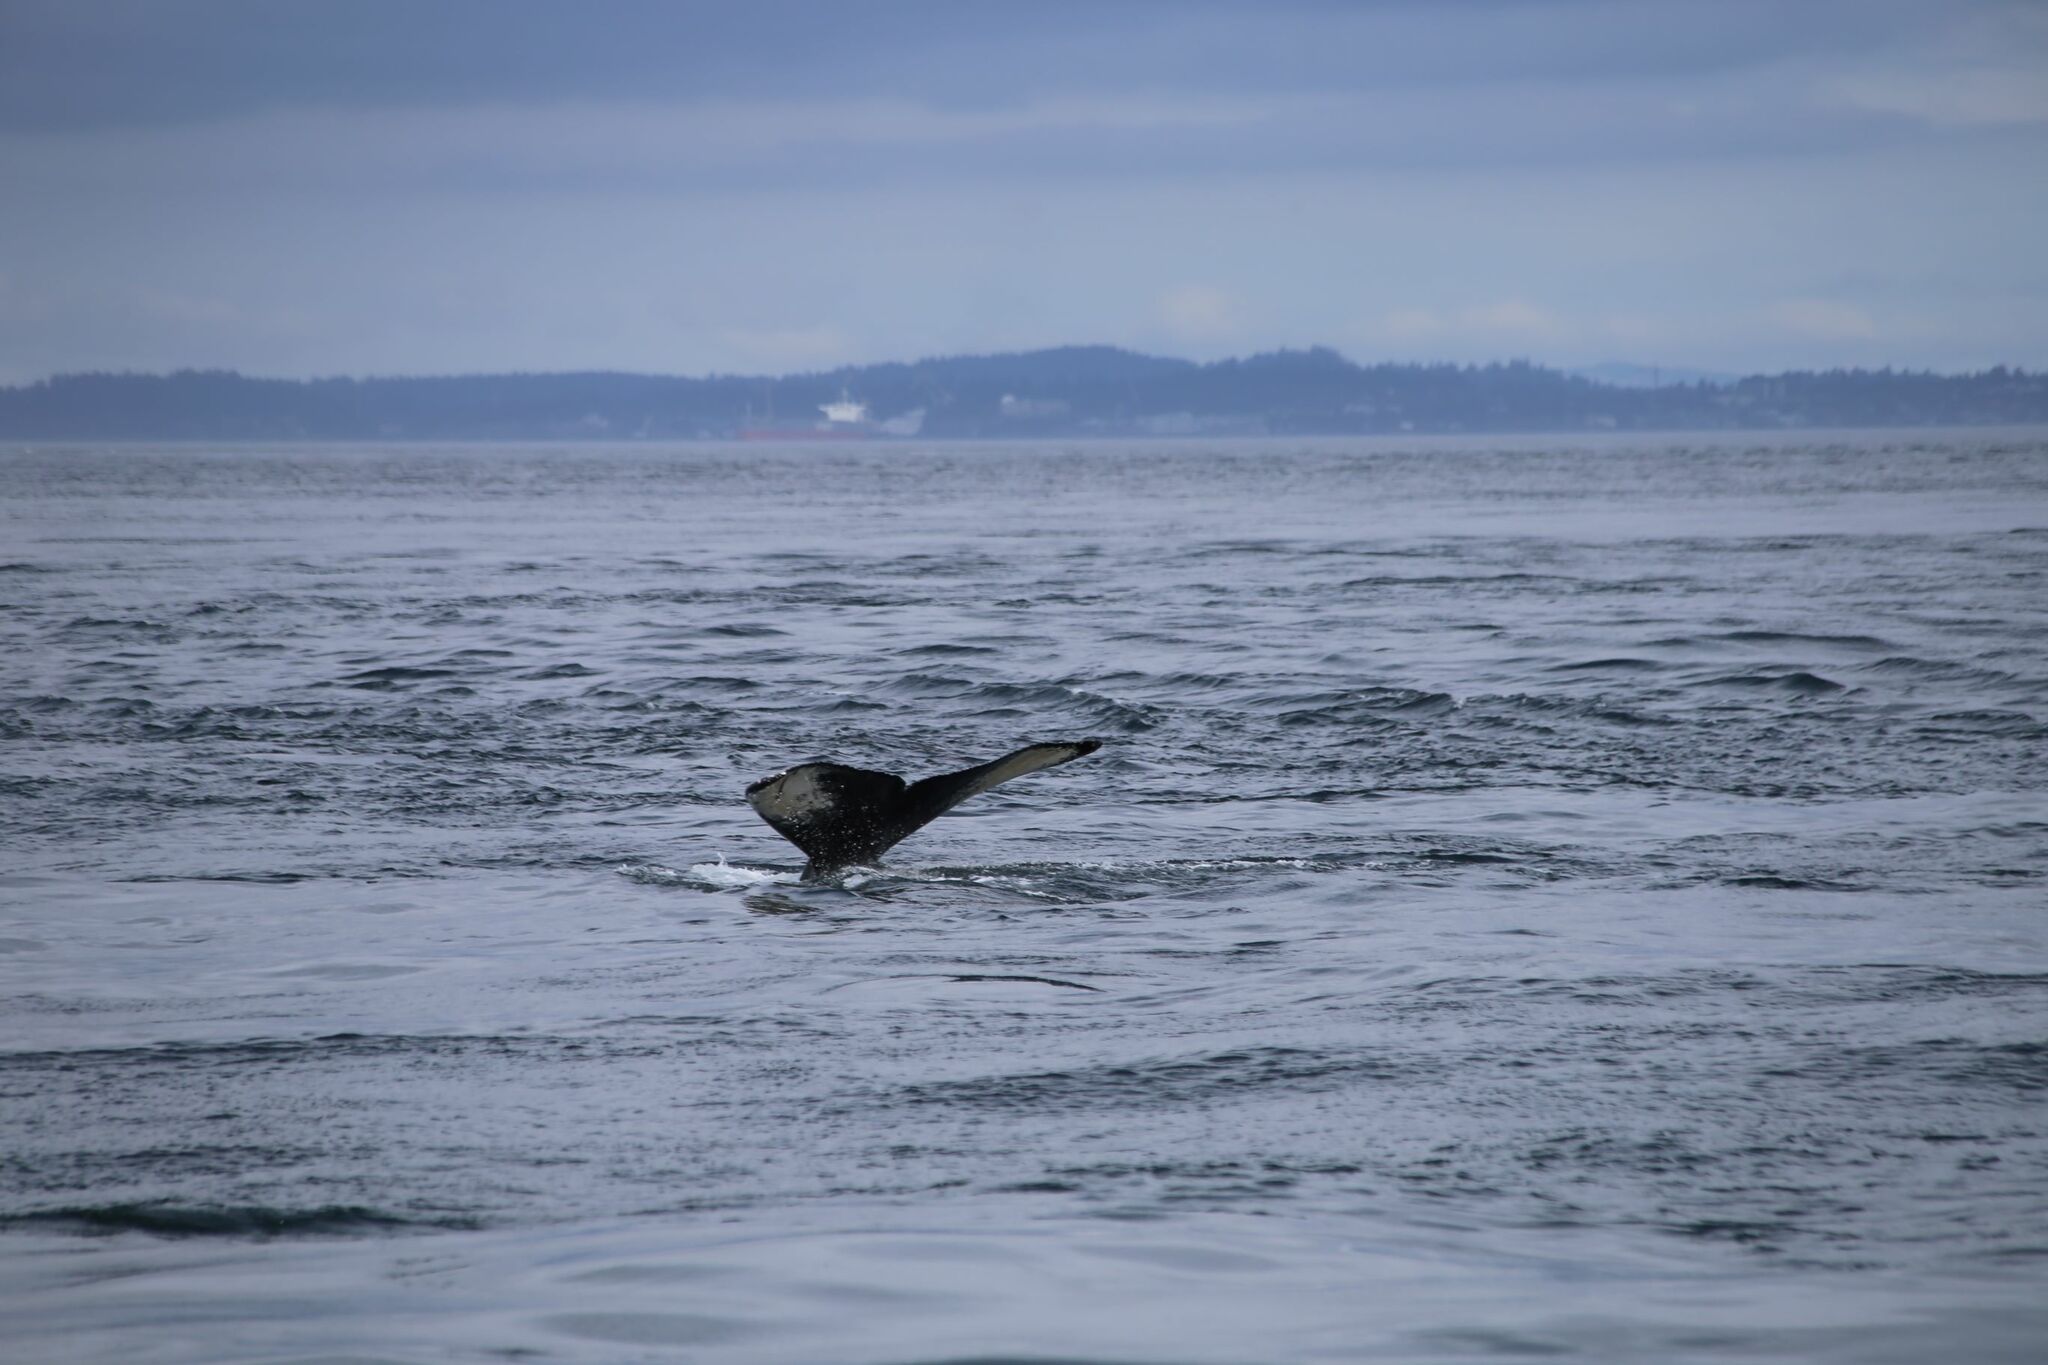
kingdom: Animalia
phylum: Chordata
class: Mammalia
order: Cetacea
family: Balaenopteridae
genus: Megaptera
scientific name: Megaptera novaeangliae
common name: Humpback whale
